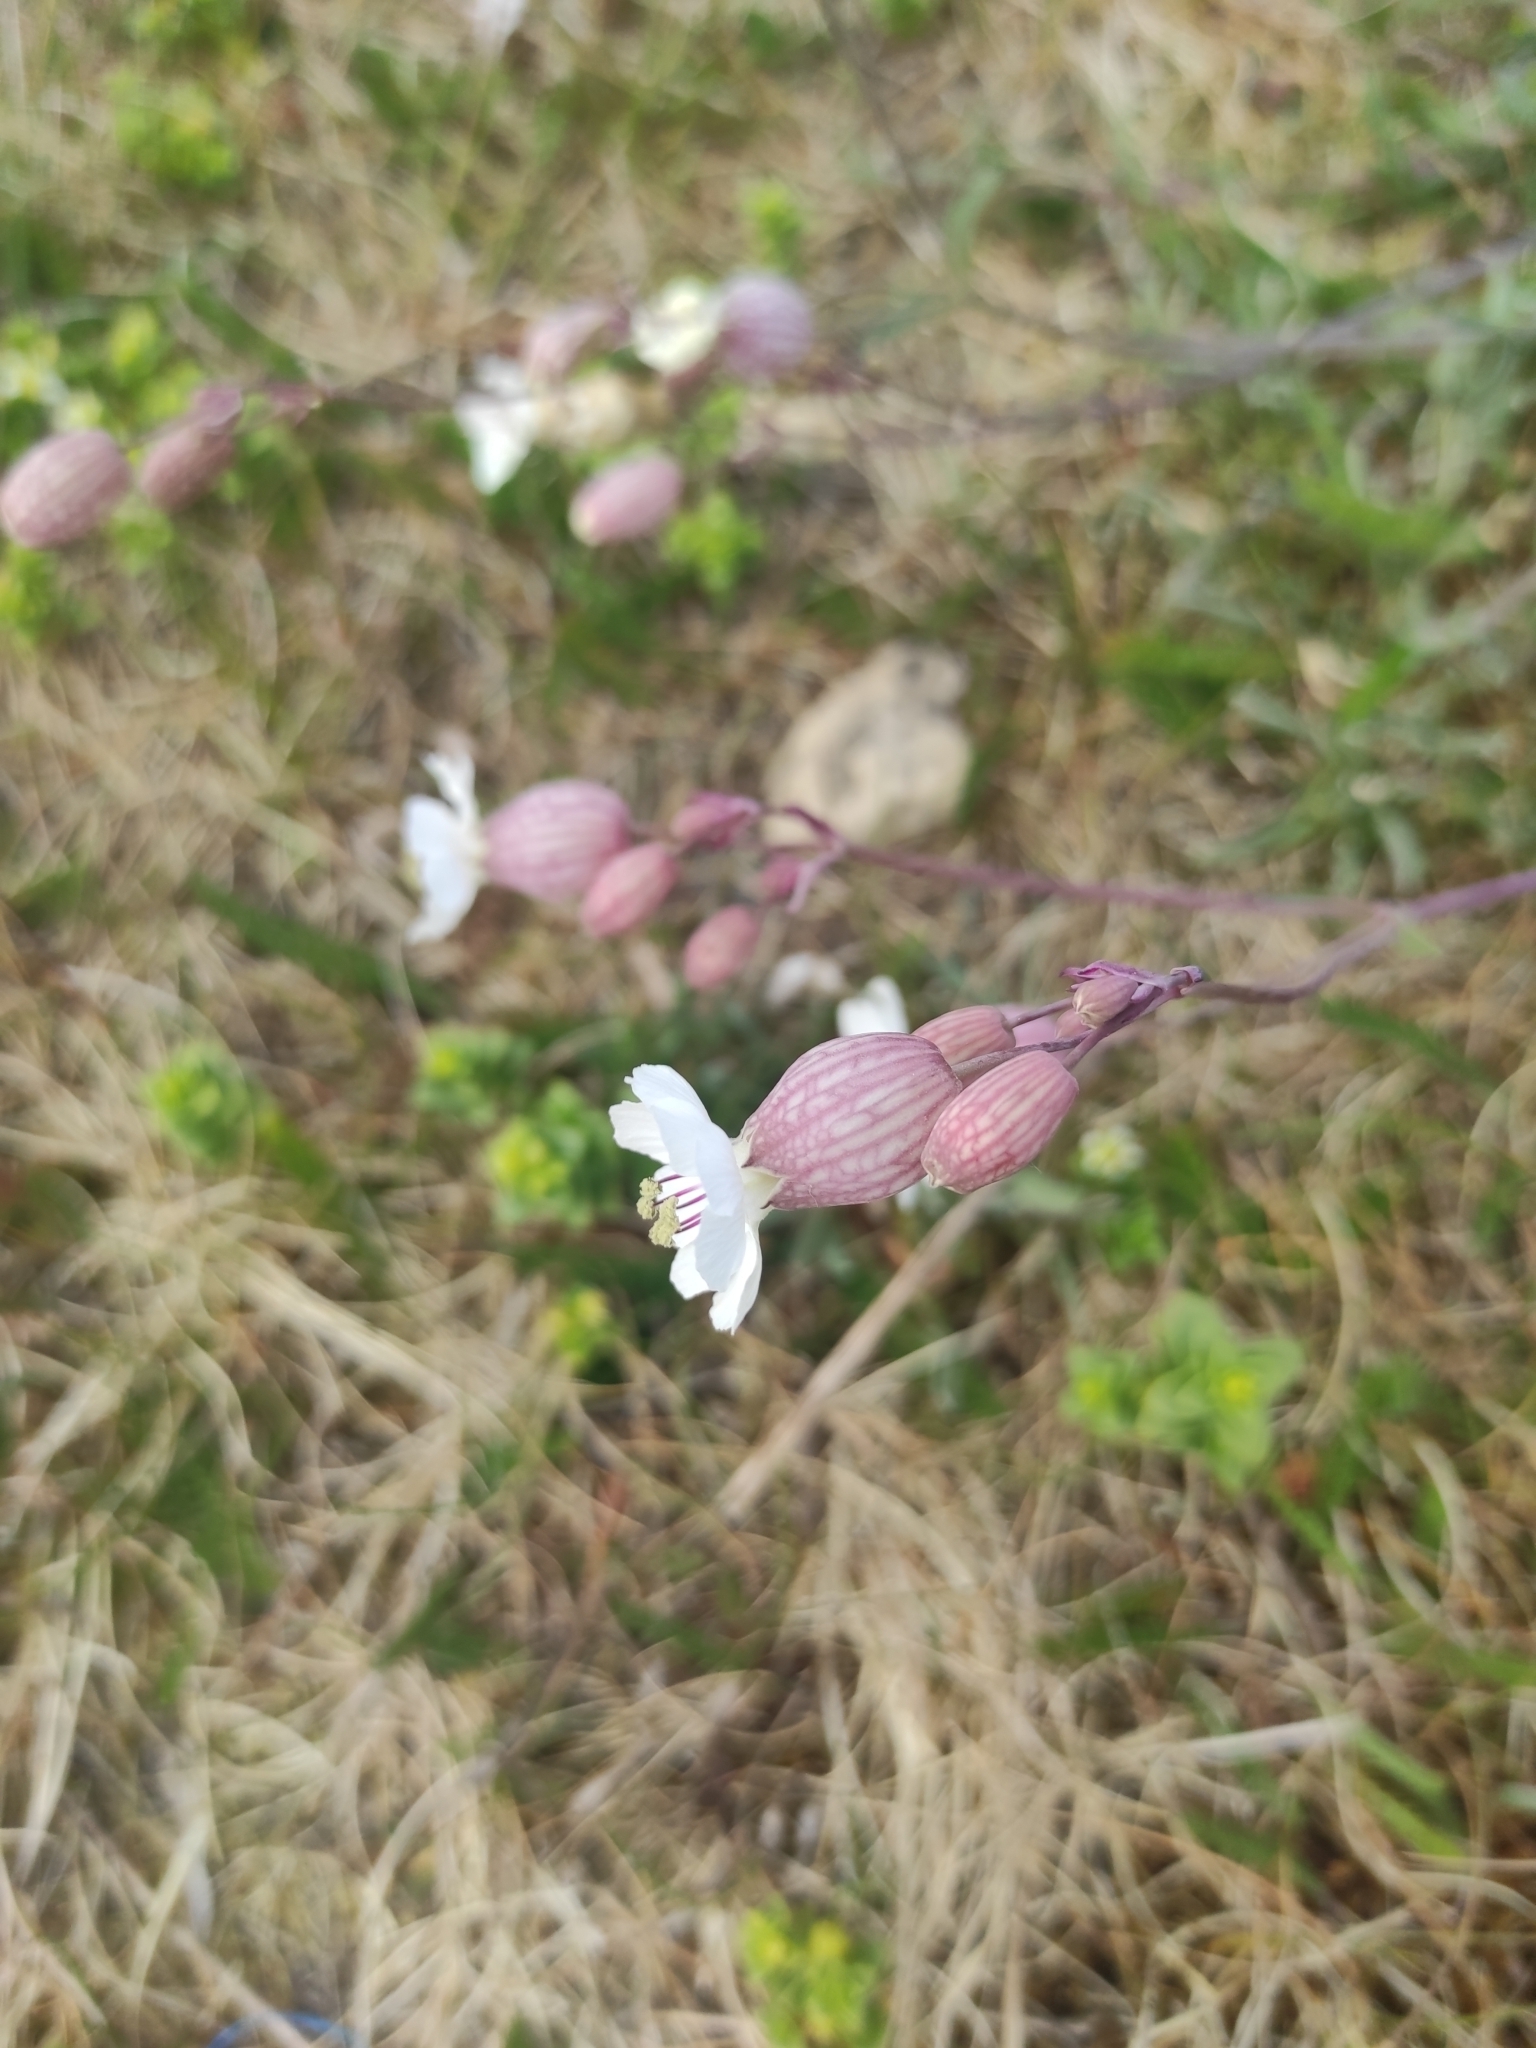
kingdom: Plantae
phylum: Tracheophyta
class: Magnoliopsida
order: Caryophyllales
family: Caryophyllaceae
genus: Silene
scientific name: Silene uniflora
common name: Sea campion
